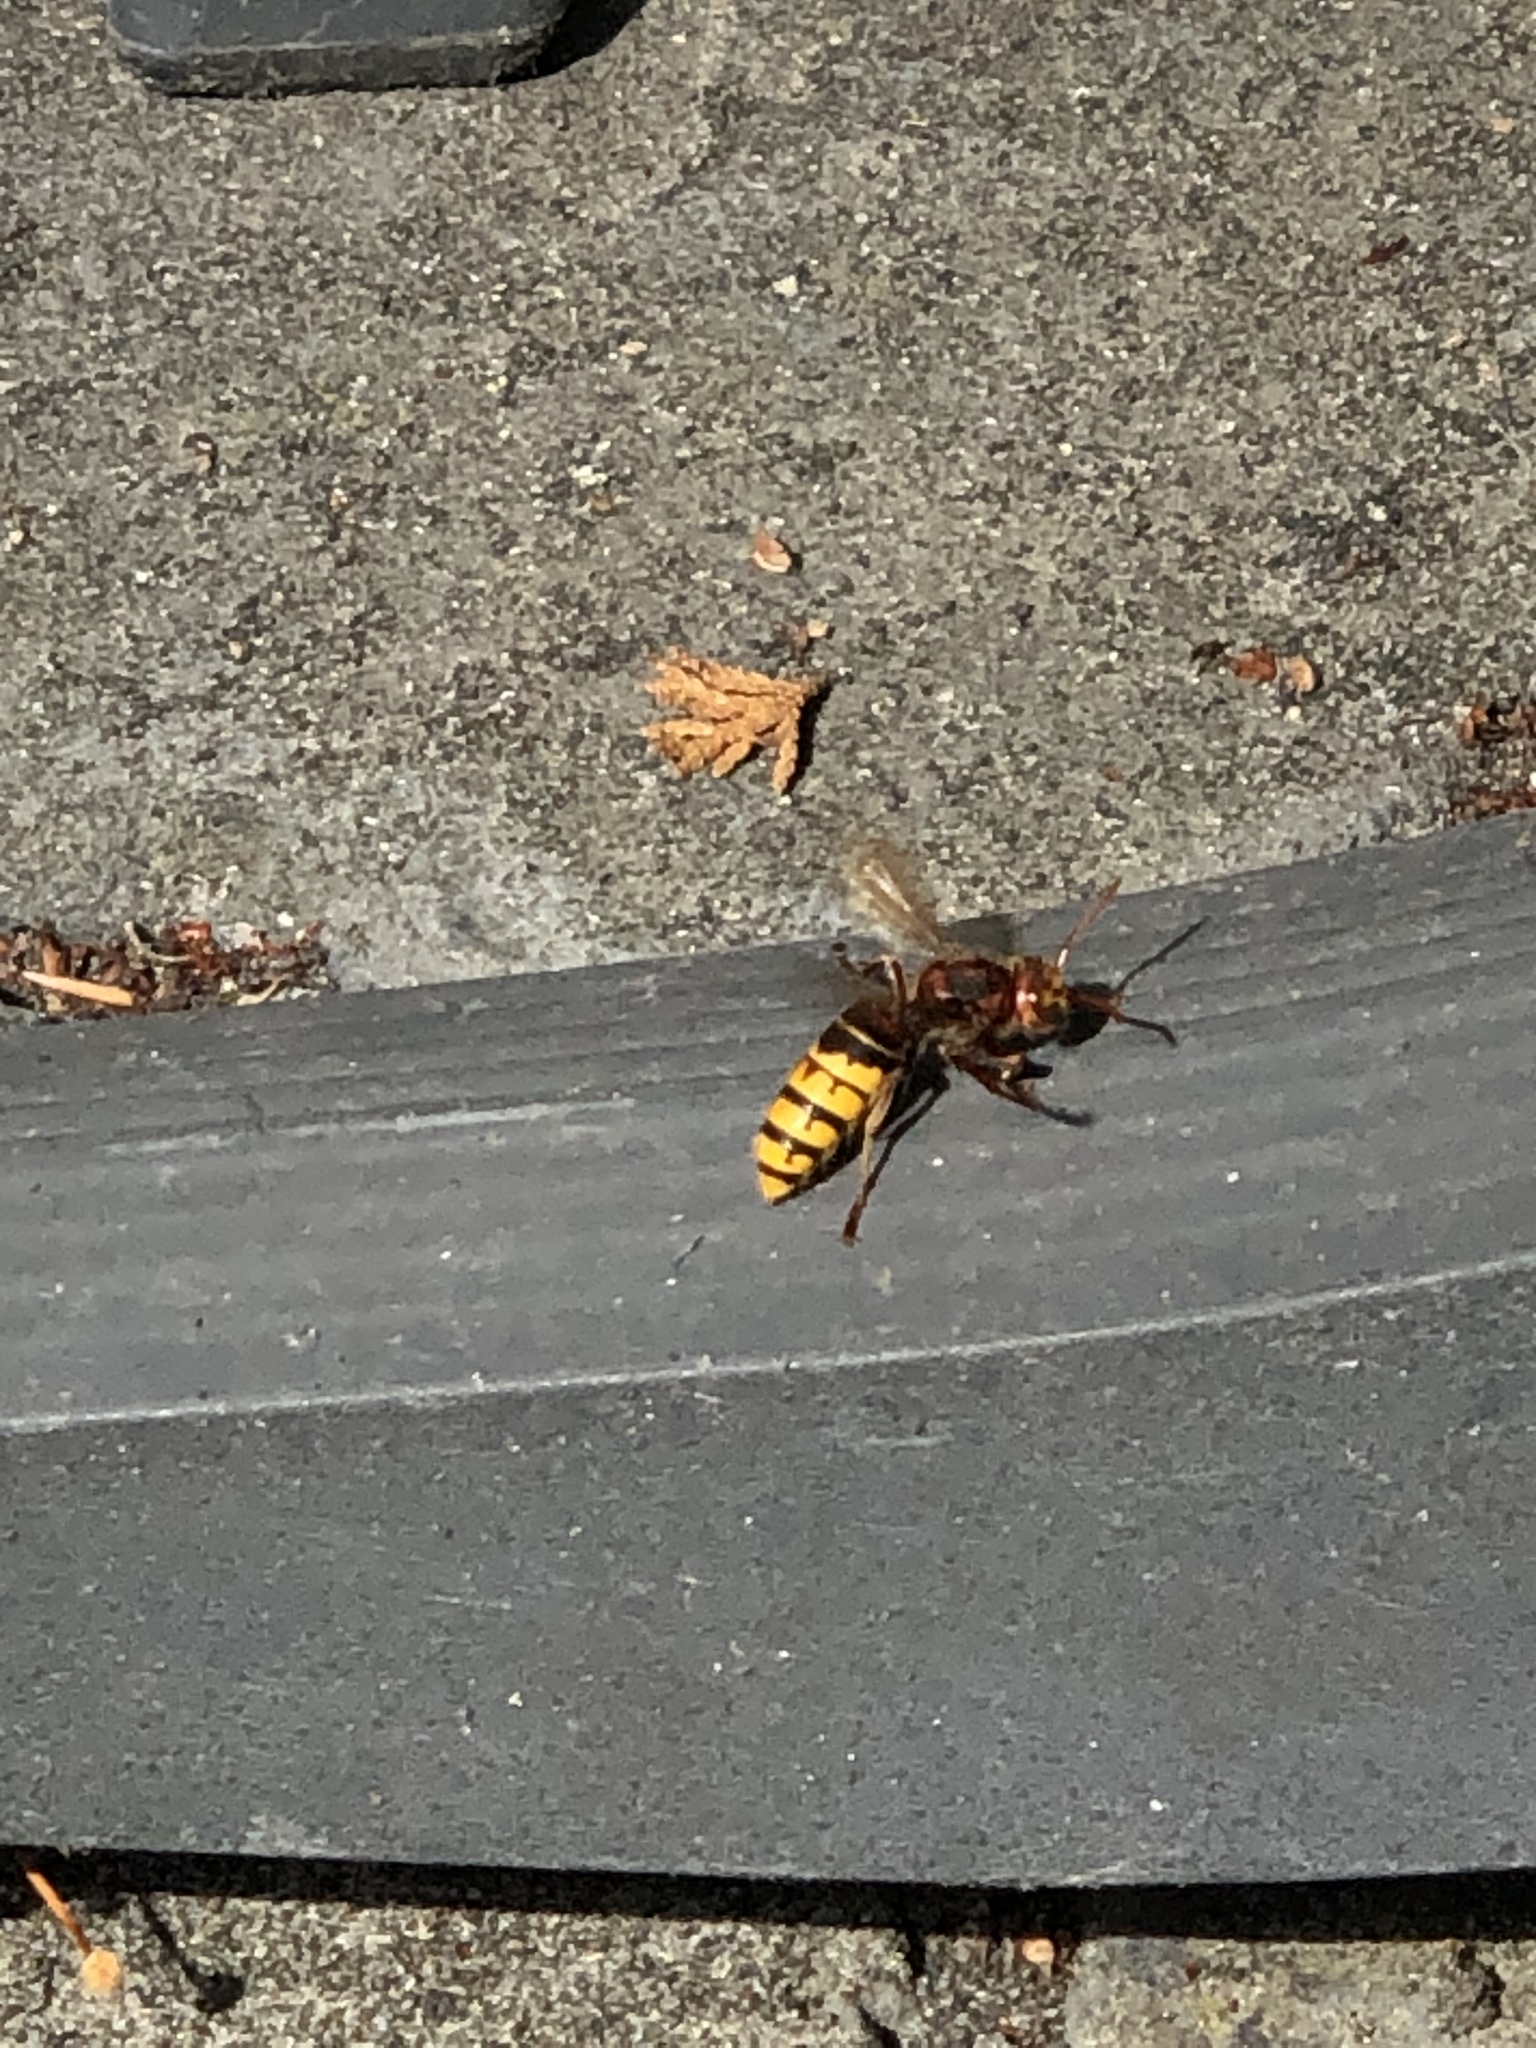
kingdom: Animalia
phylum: Arthropoda
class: Insecta
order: Hymenoptera
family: Vespidae
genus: Vespa
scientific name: Vespa crabro
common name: Hornet
